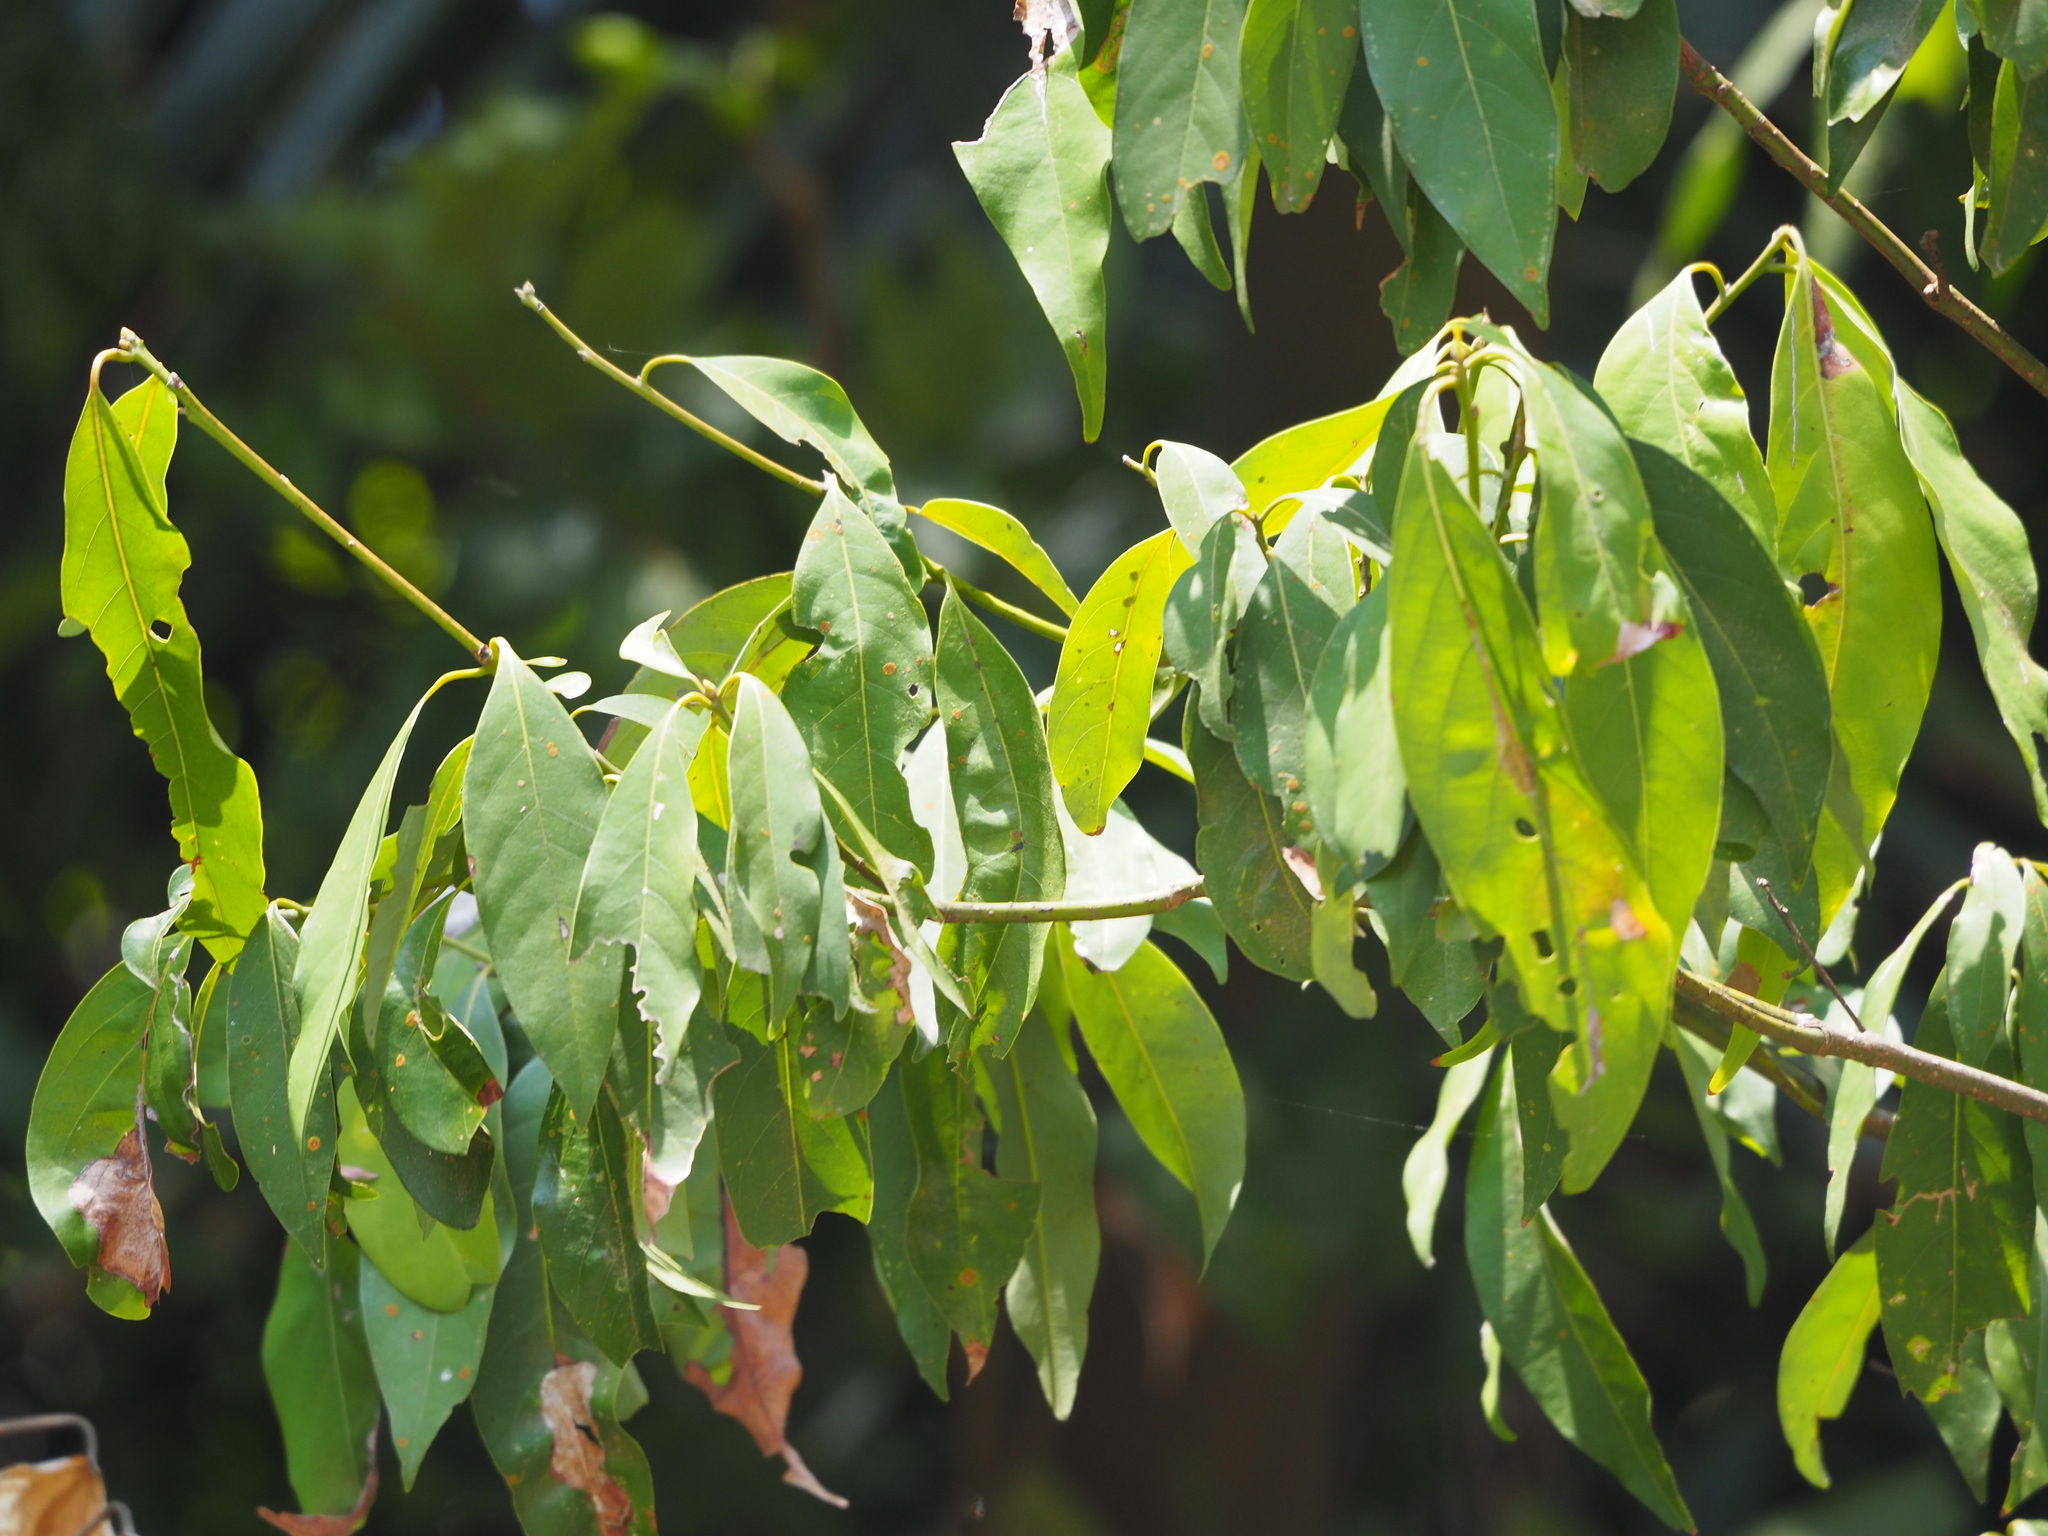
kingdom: Plantae
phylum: Tracheophyta
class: Magnoliopsida
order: Laurales
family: Lauraceae
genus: Machilus
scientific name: Machilus zuihoensis
